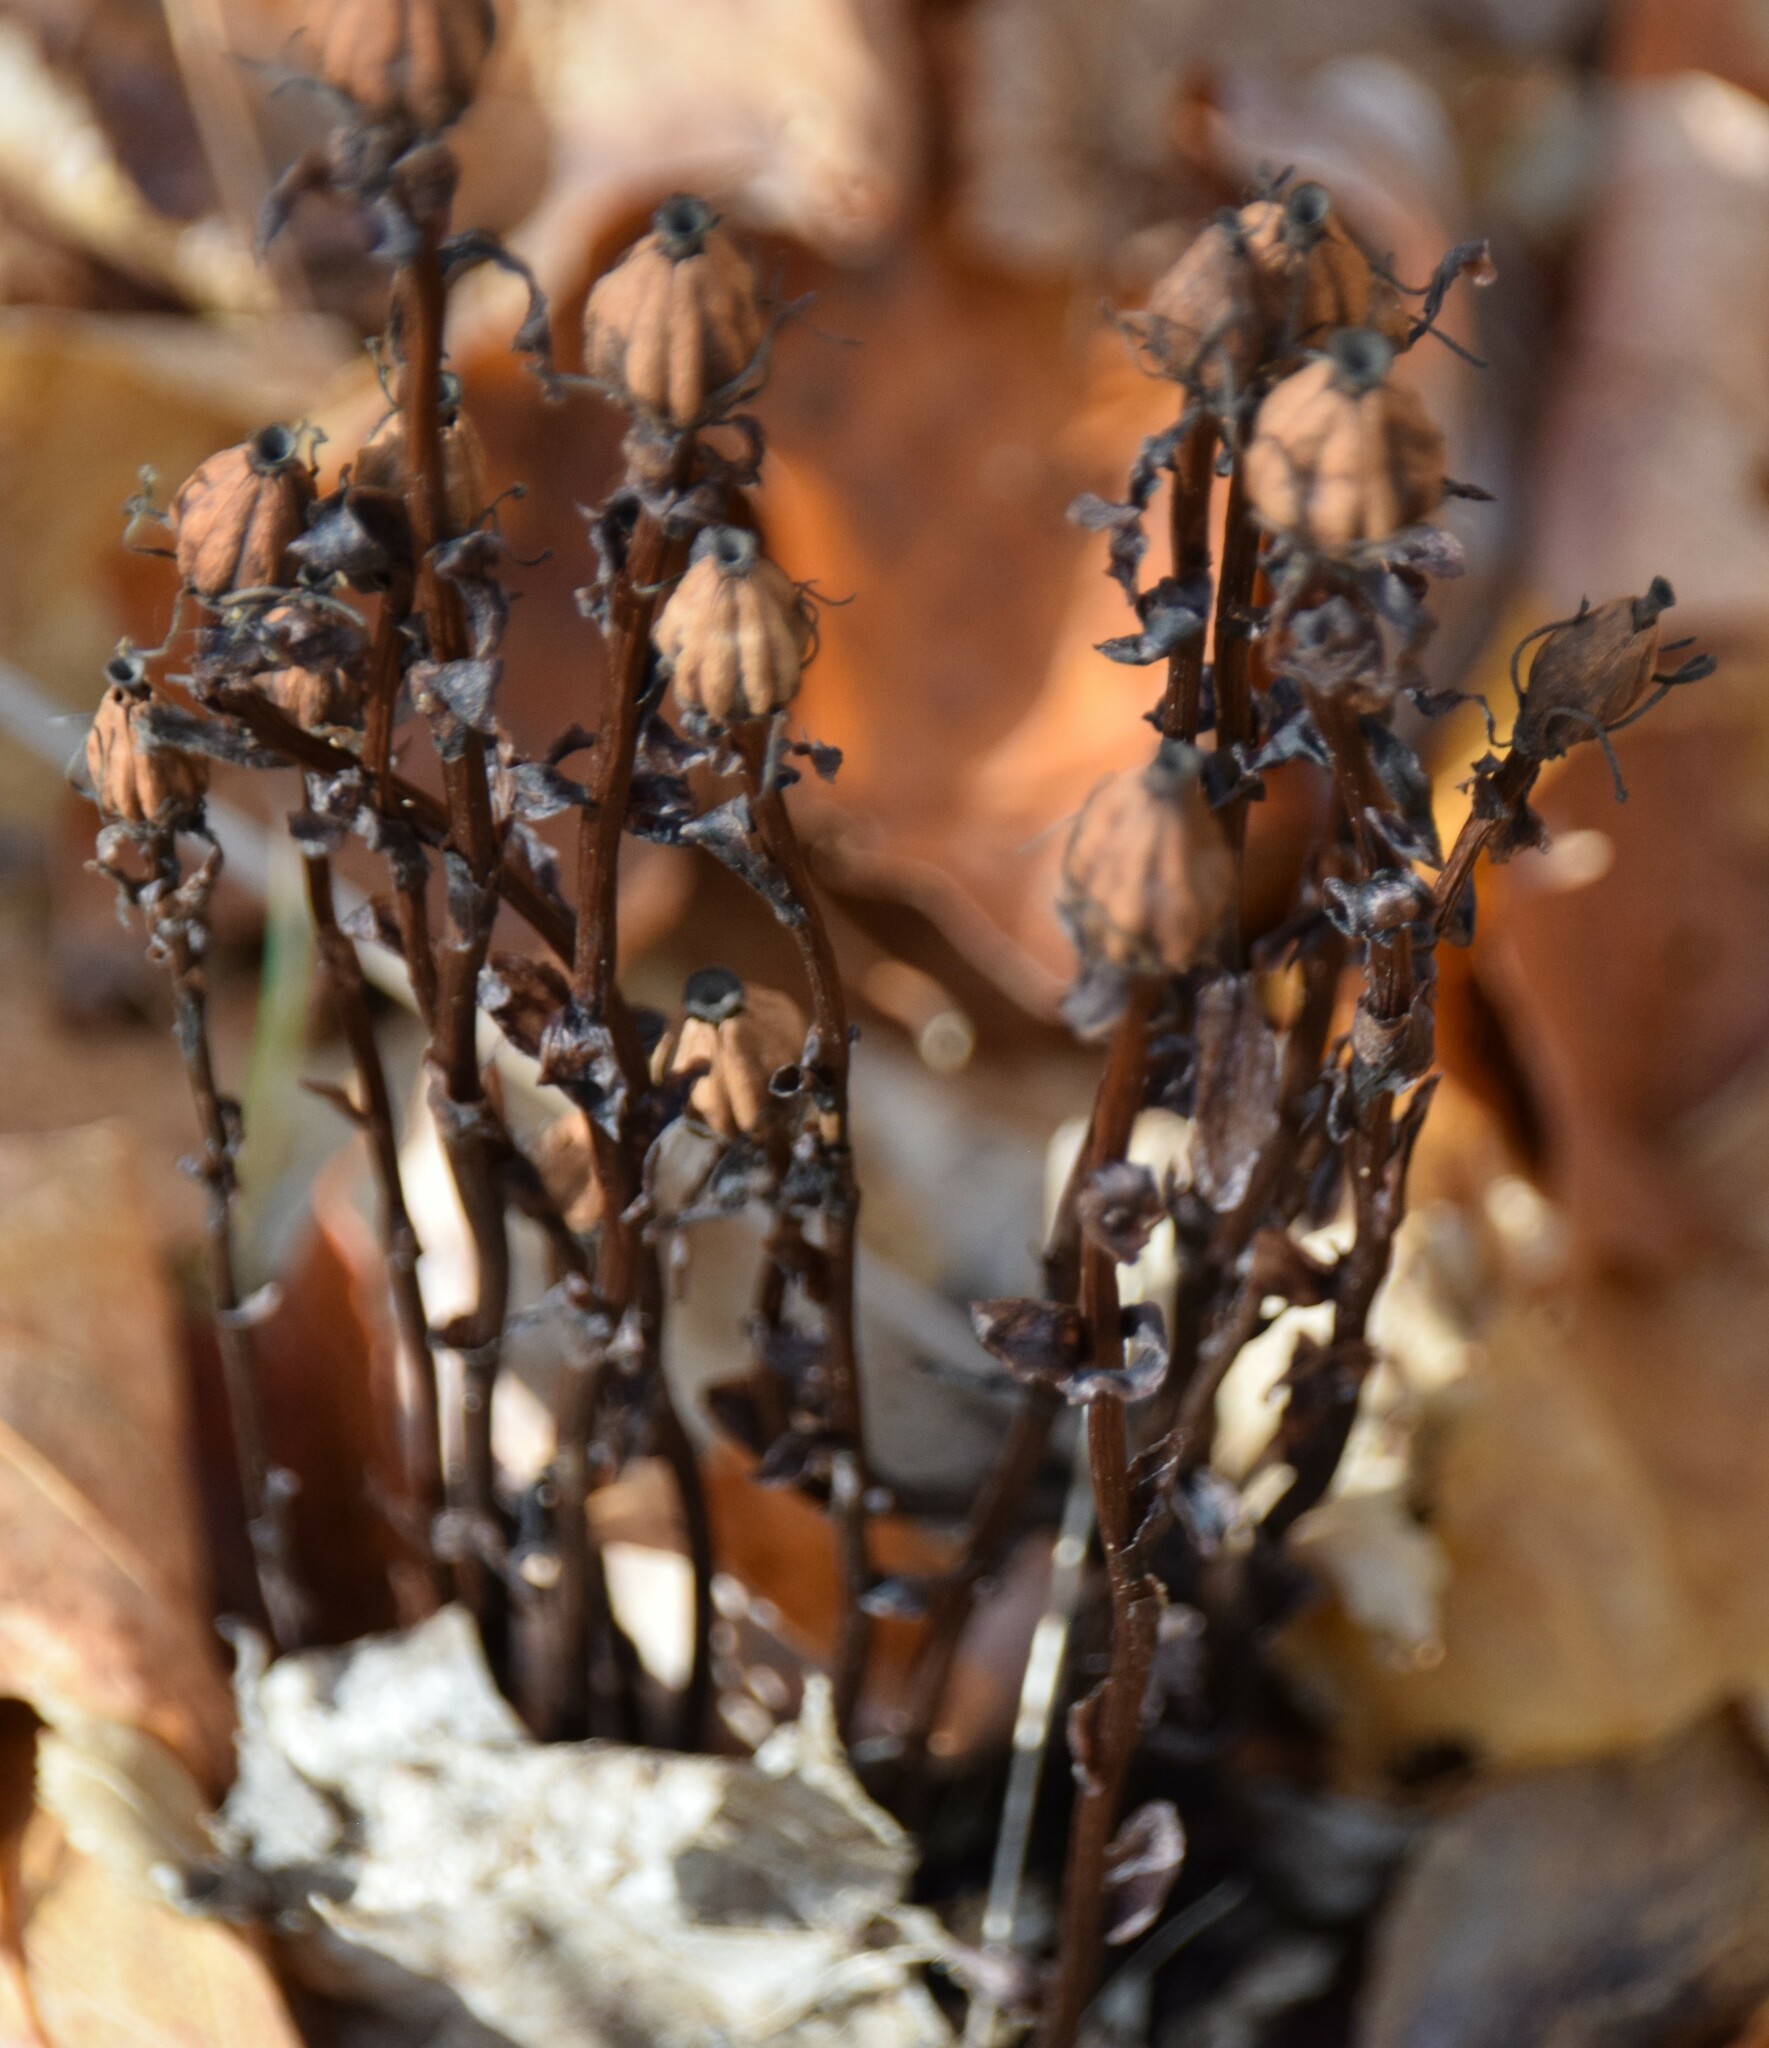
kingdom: Plantae
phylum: Tracheophyta
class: Magnoliopsida
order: Ericales
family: Ericaceae
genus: Monotropa
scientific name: Monotropa uniflora
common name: Convulsion root
